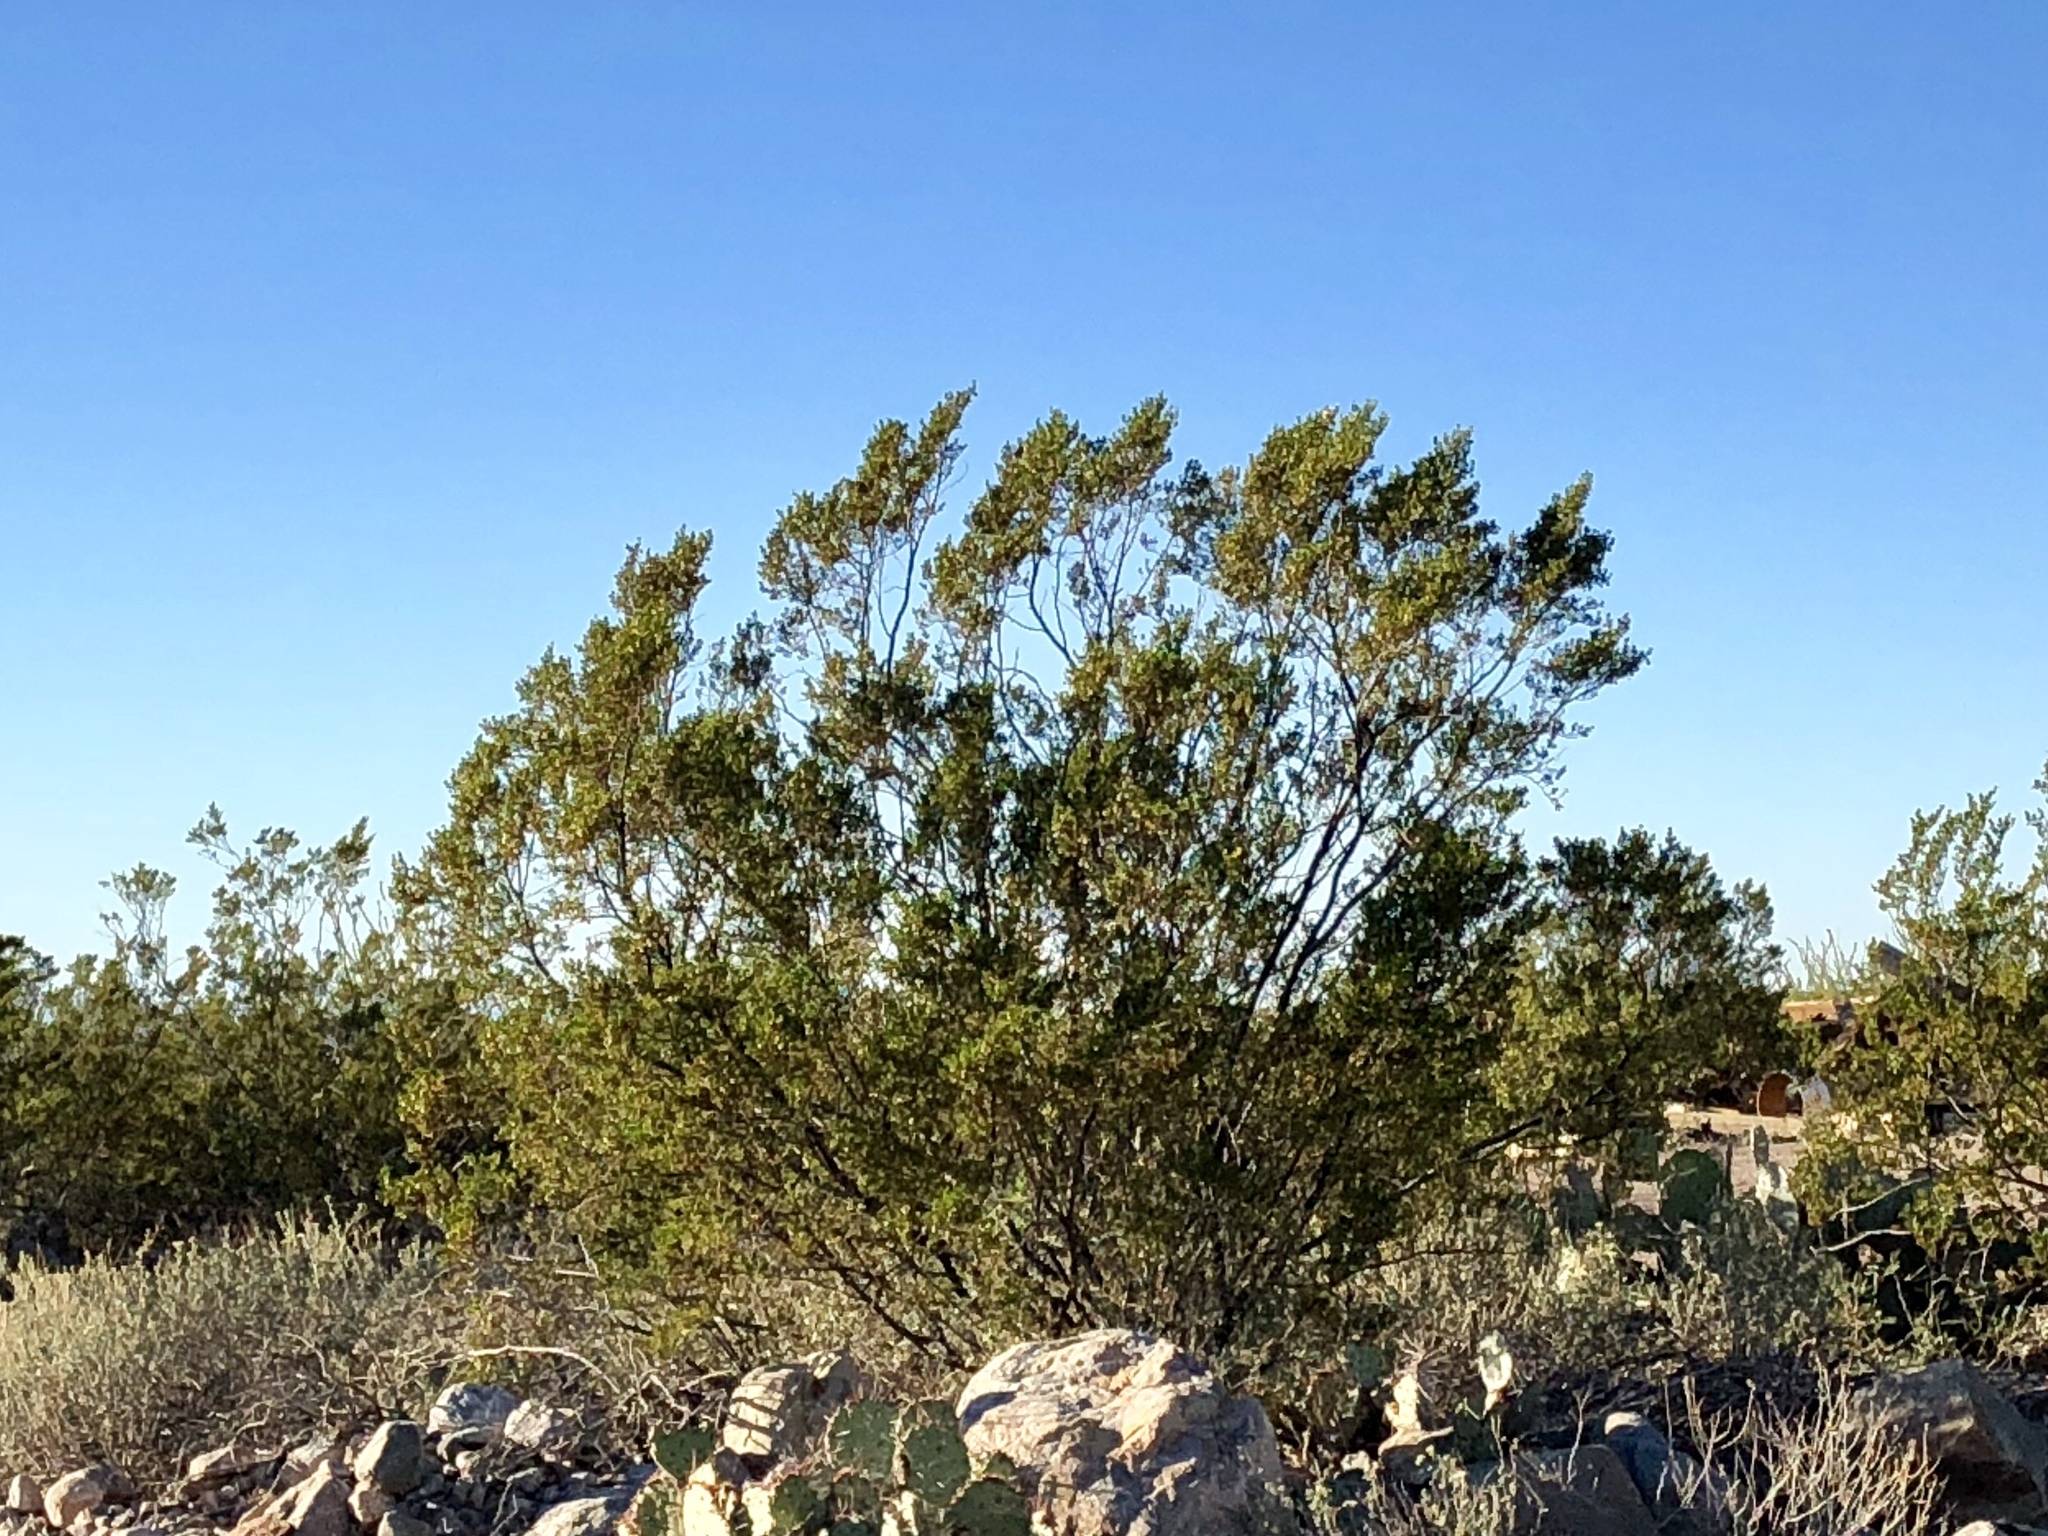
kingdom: Plantae
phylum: Tracheophyta
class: Magnoliopsida
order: Zygophyllales
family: Zygophyllaceae
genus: Larrea
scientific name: Larrea tridentata
